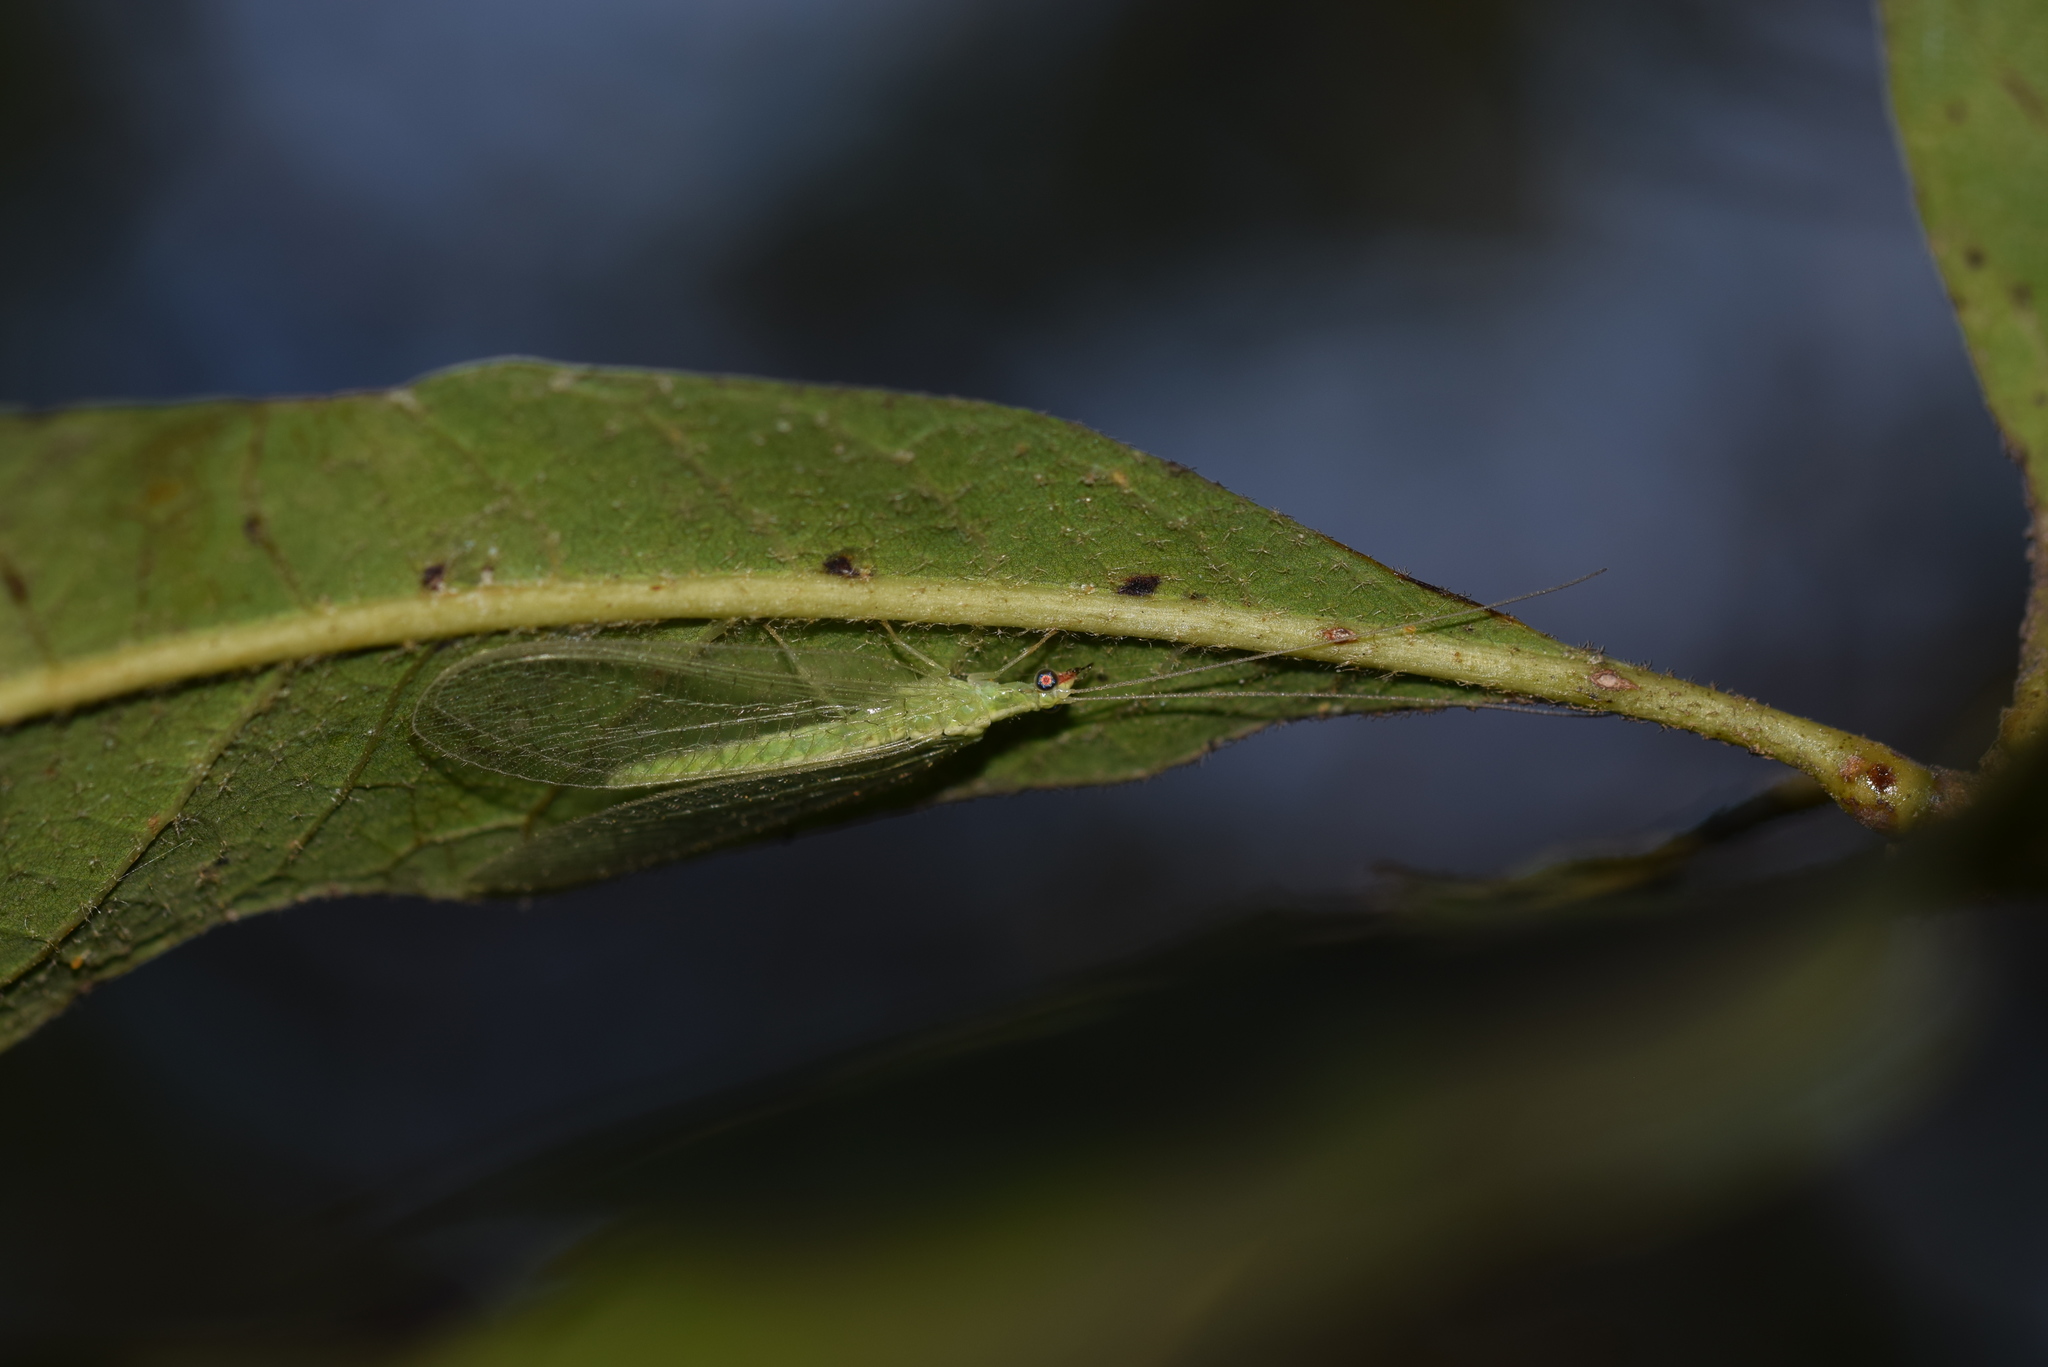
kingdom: Animalia
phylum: Arthropoda
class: Insecta
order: Neuroptera
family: Chrysopidae
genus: Chrysoperla
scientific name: Chrysoperla rufilabris
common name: Red-lipped green lacewing
